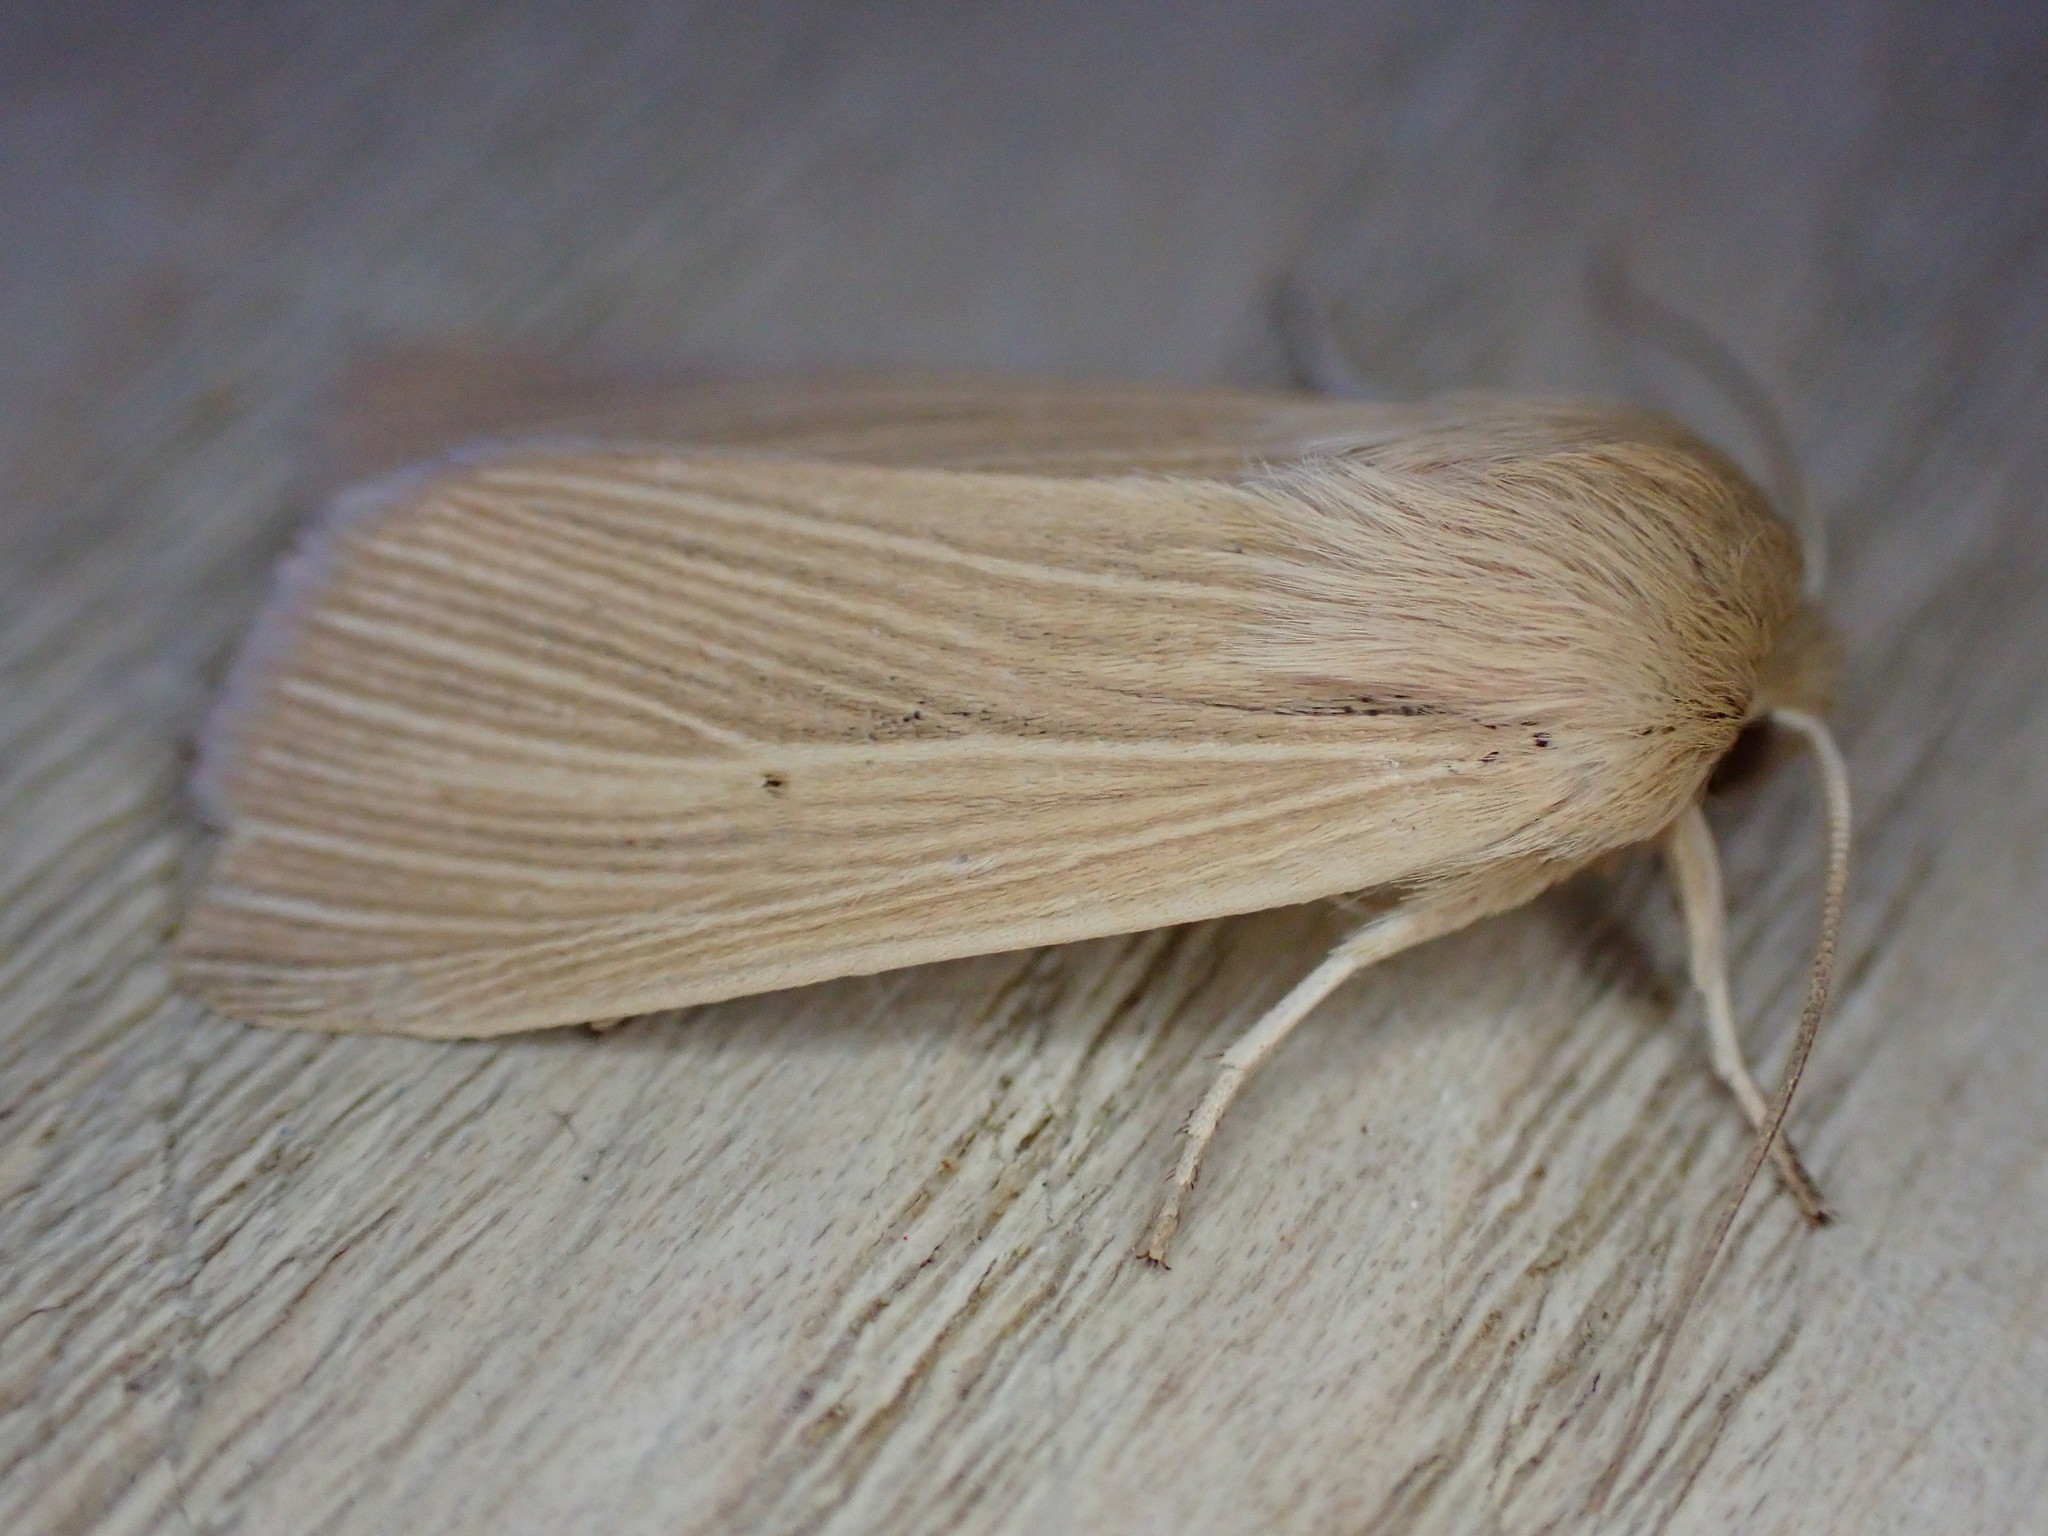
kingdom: Animalia
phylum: Arthropoda
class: Insecta
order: Lepidoptera
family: Noctuidae
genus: Mythimna
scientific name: Mythimna pallens
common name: Common wainscot
